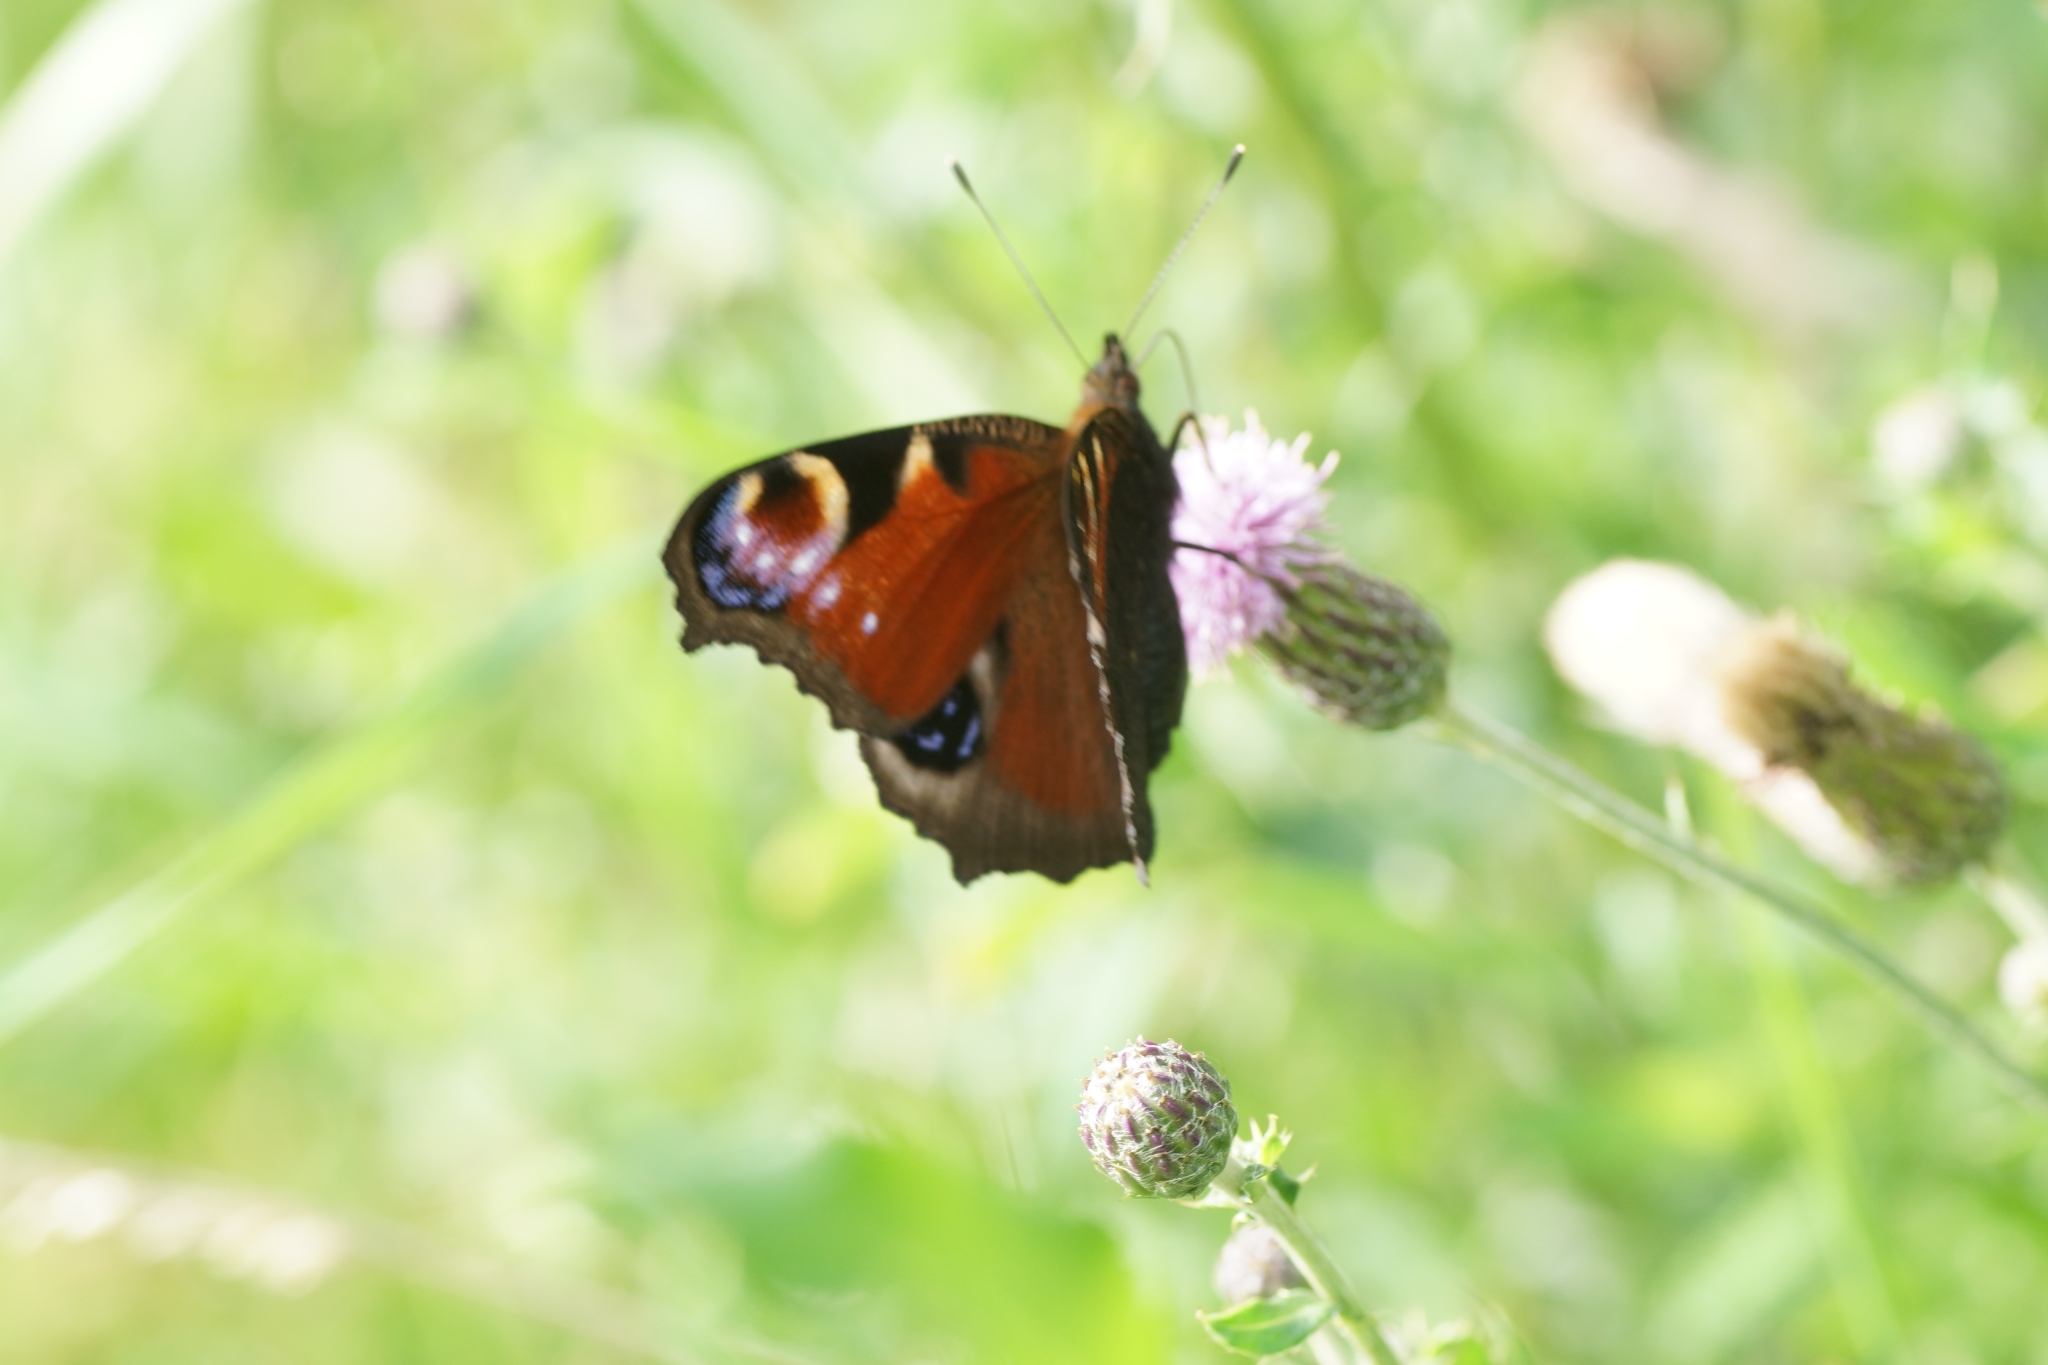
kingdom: Animalia
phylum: Arthropoda
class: Insecta
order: Lepidoptera
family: Nymphalidae
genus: Aglais
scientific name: Aglais io
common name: Peacock
